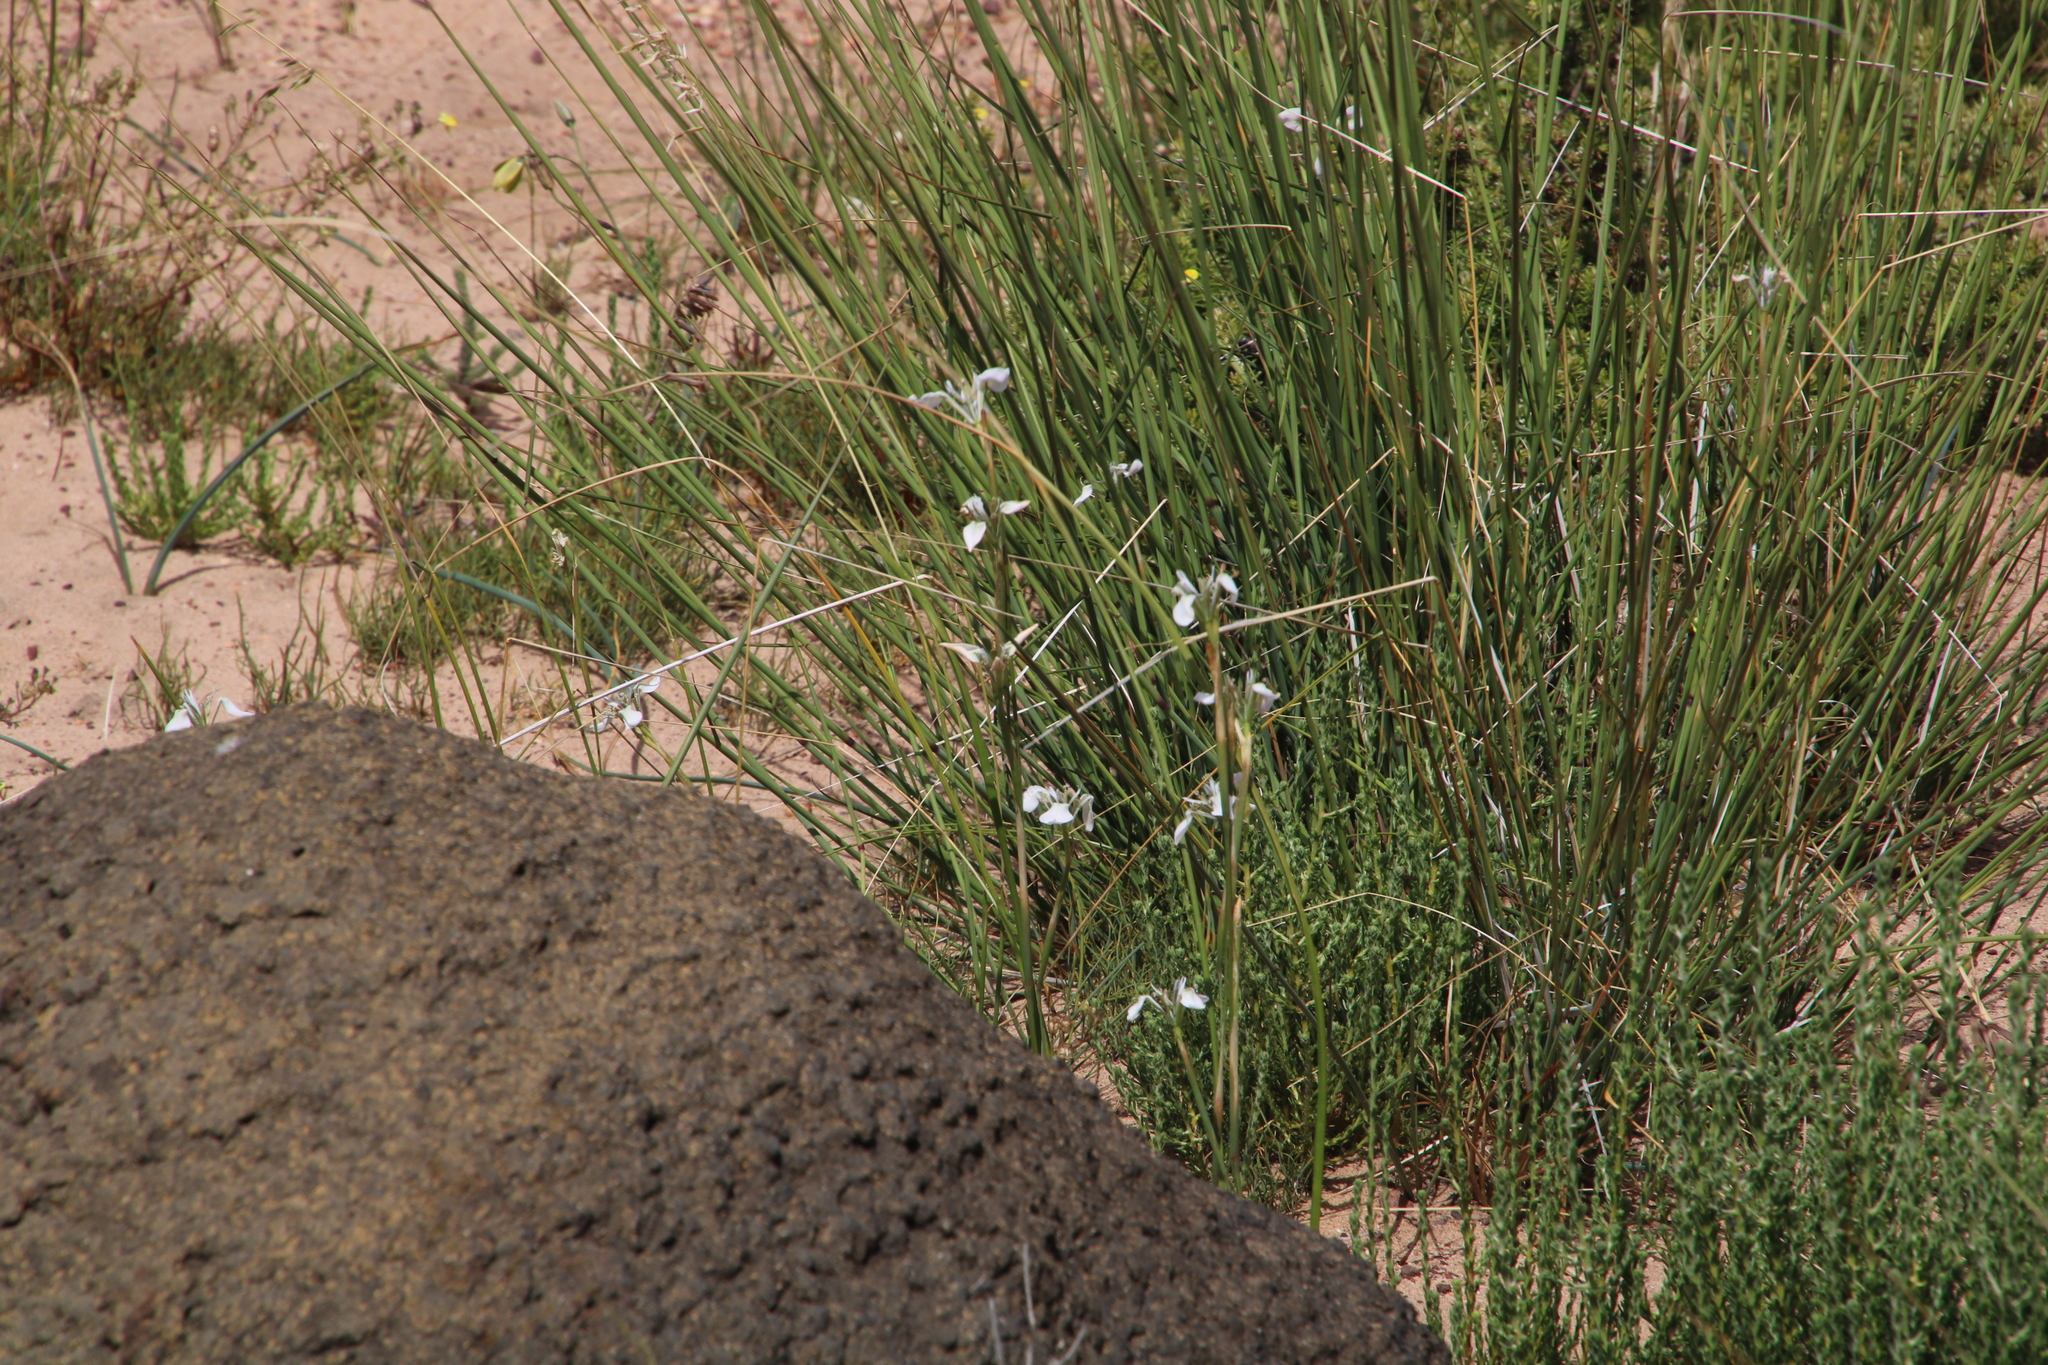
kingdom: Plantae
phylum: Tracheophyta
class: Liliopsida
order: Asparagales
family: Iridaceae
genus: Moraea
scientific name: Moraea tripetala
